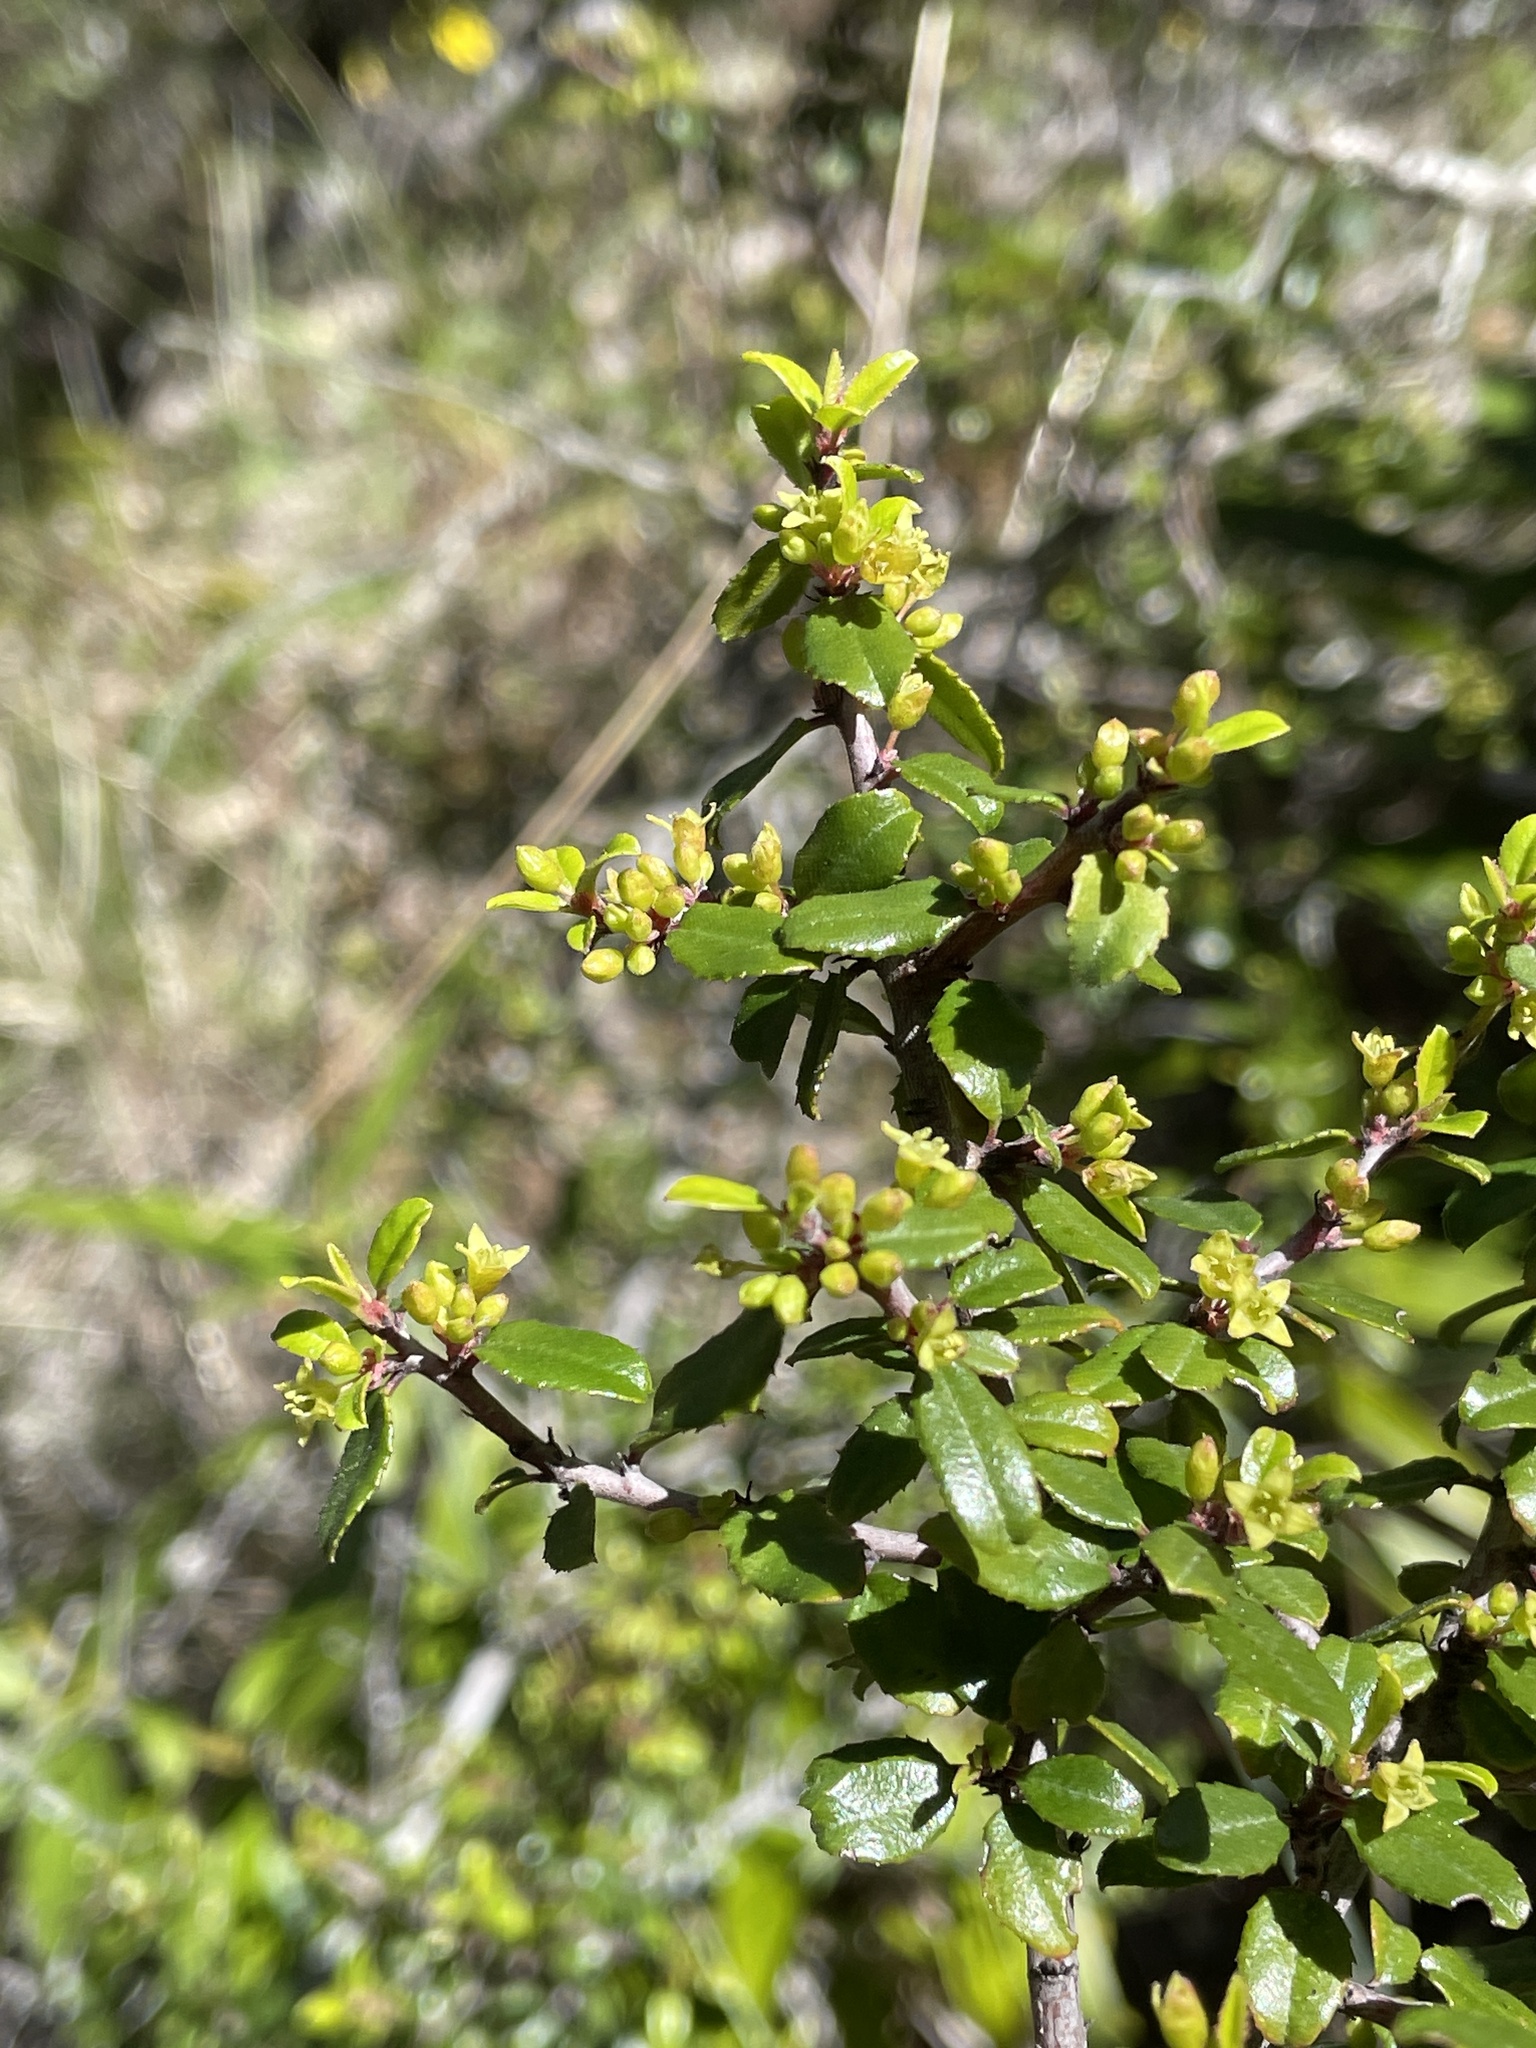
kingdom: Plantae
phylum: Tracheophyta
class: Magnoliopsida
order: Rosales
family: Rhamnaceae
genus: Endotropis
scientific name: Endotropis crocea
